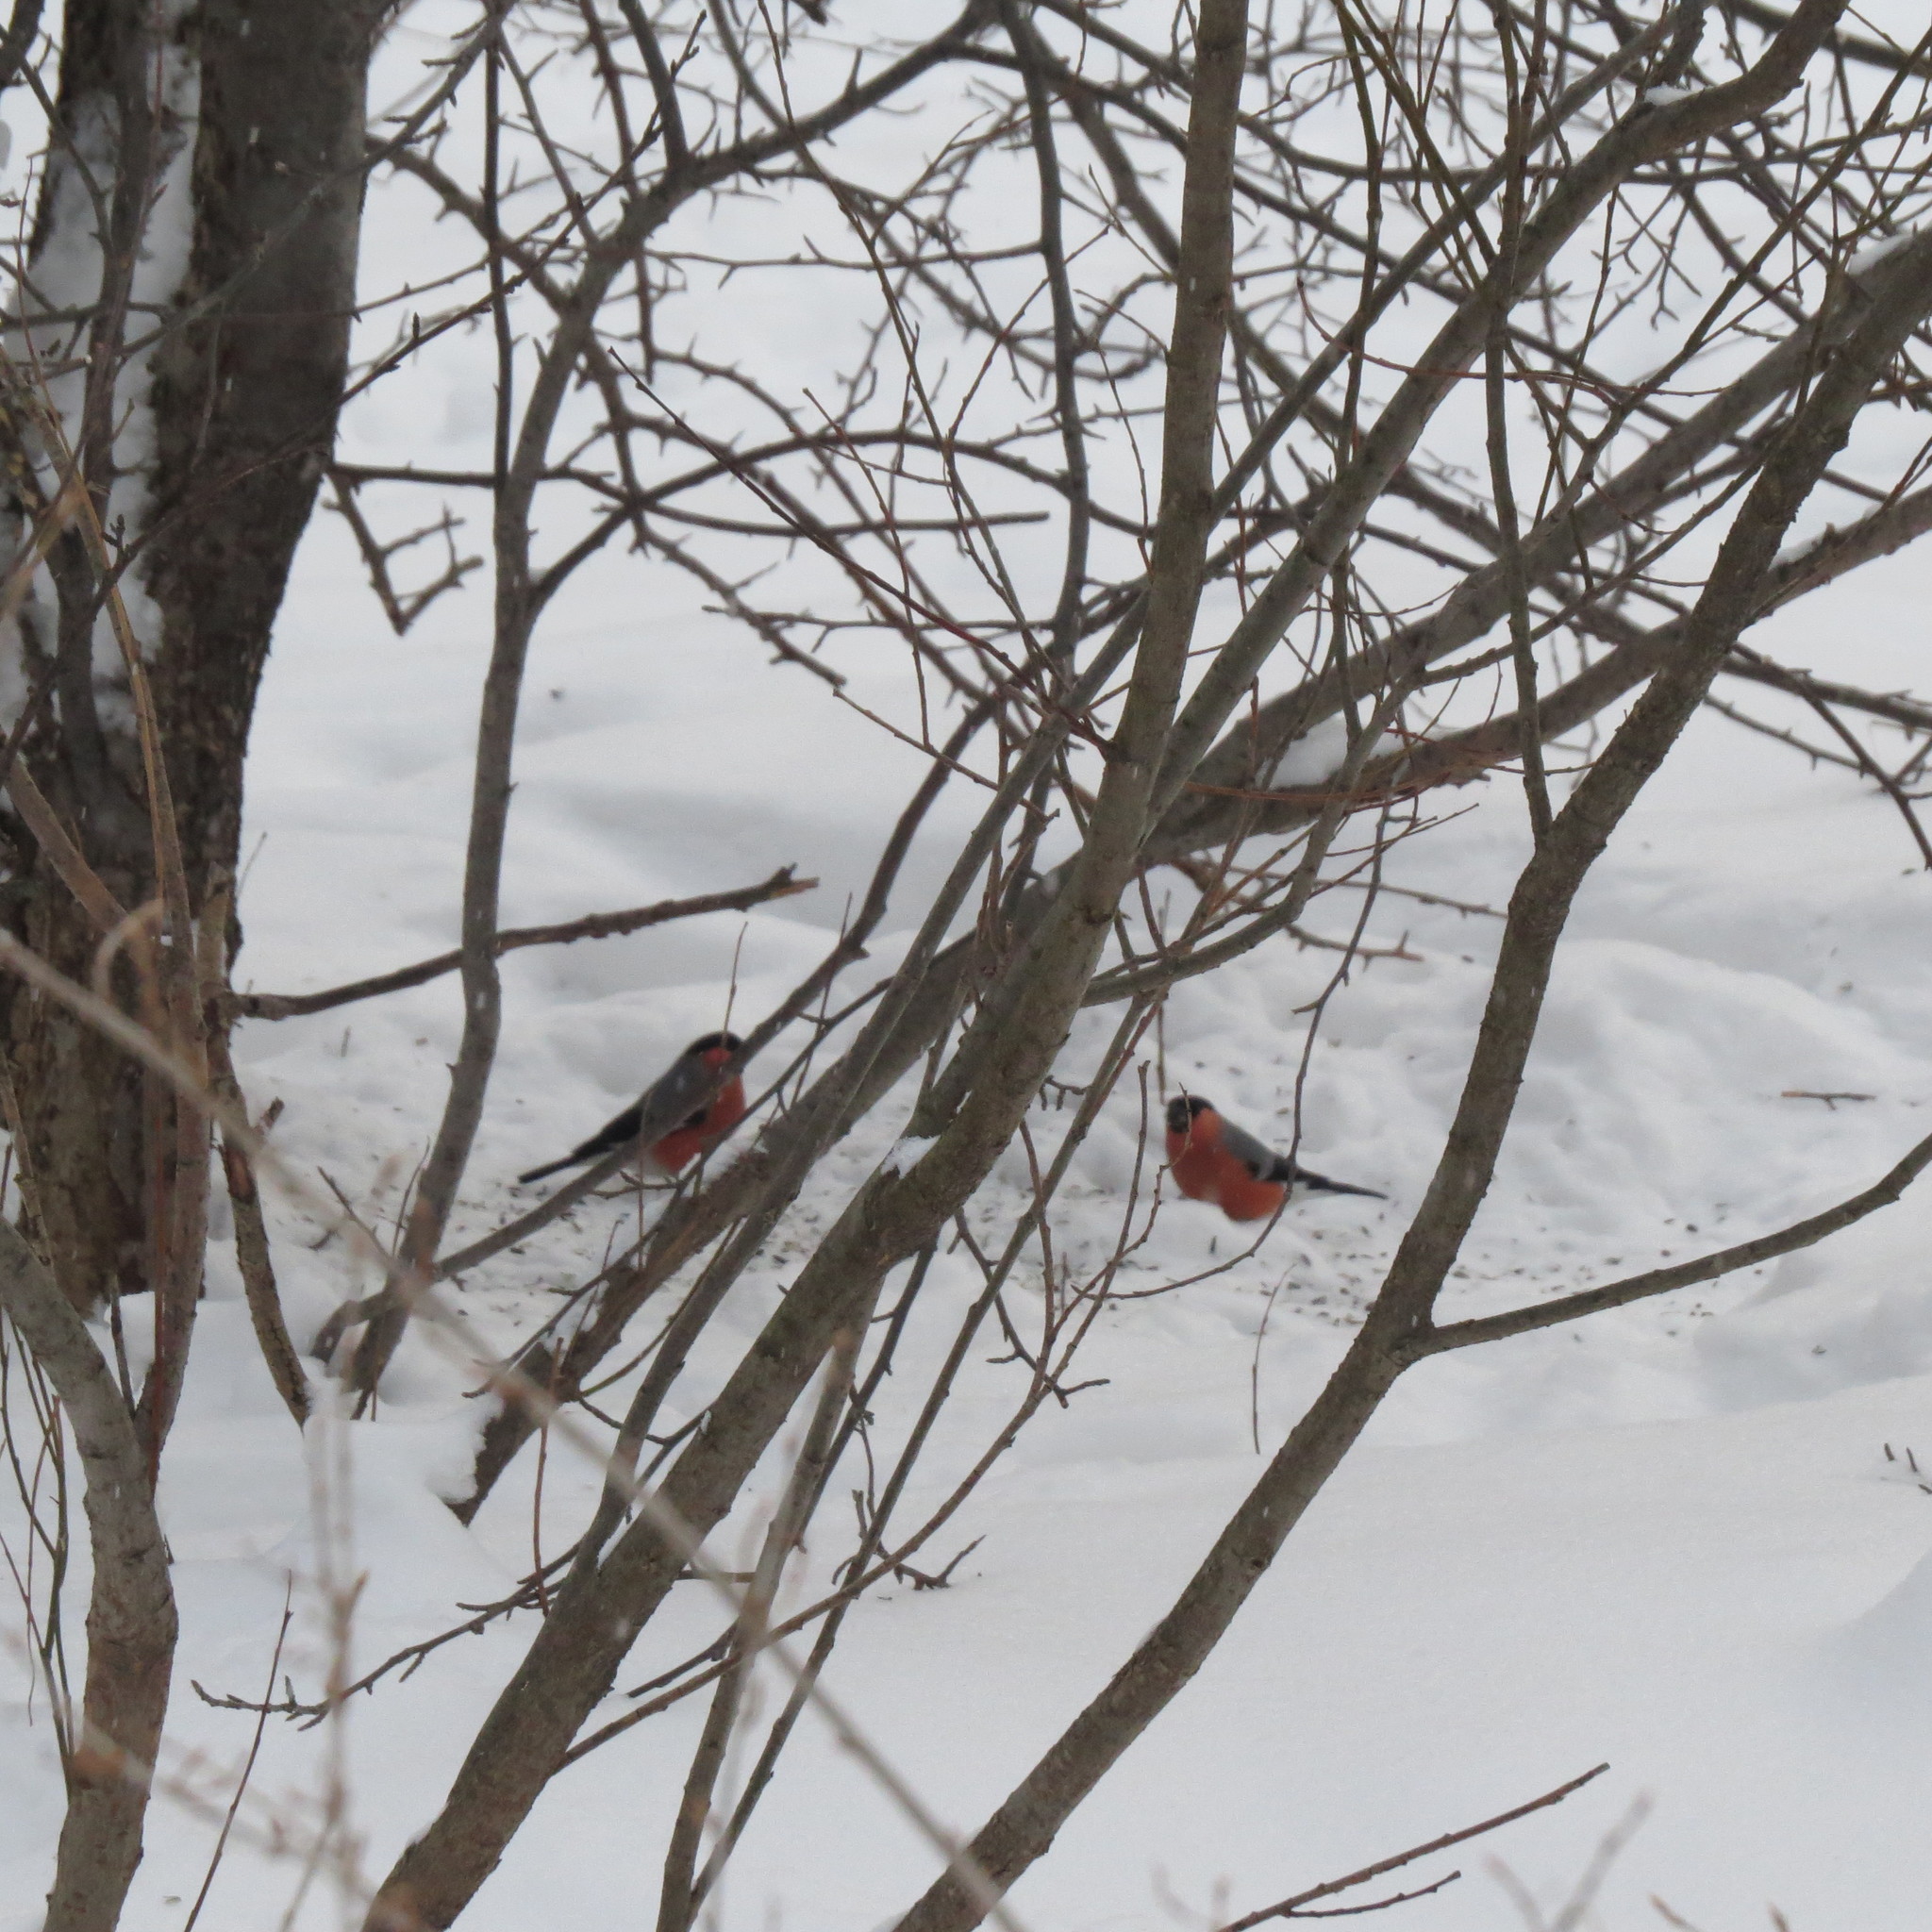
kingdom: Animalia
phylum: Chordata
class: Aves
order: Passeriformes
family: Fringillidae
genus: Pyrrhula
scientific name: Pyrrhula pyrrhula
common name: Eurasian bullfinch
